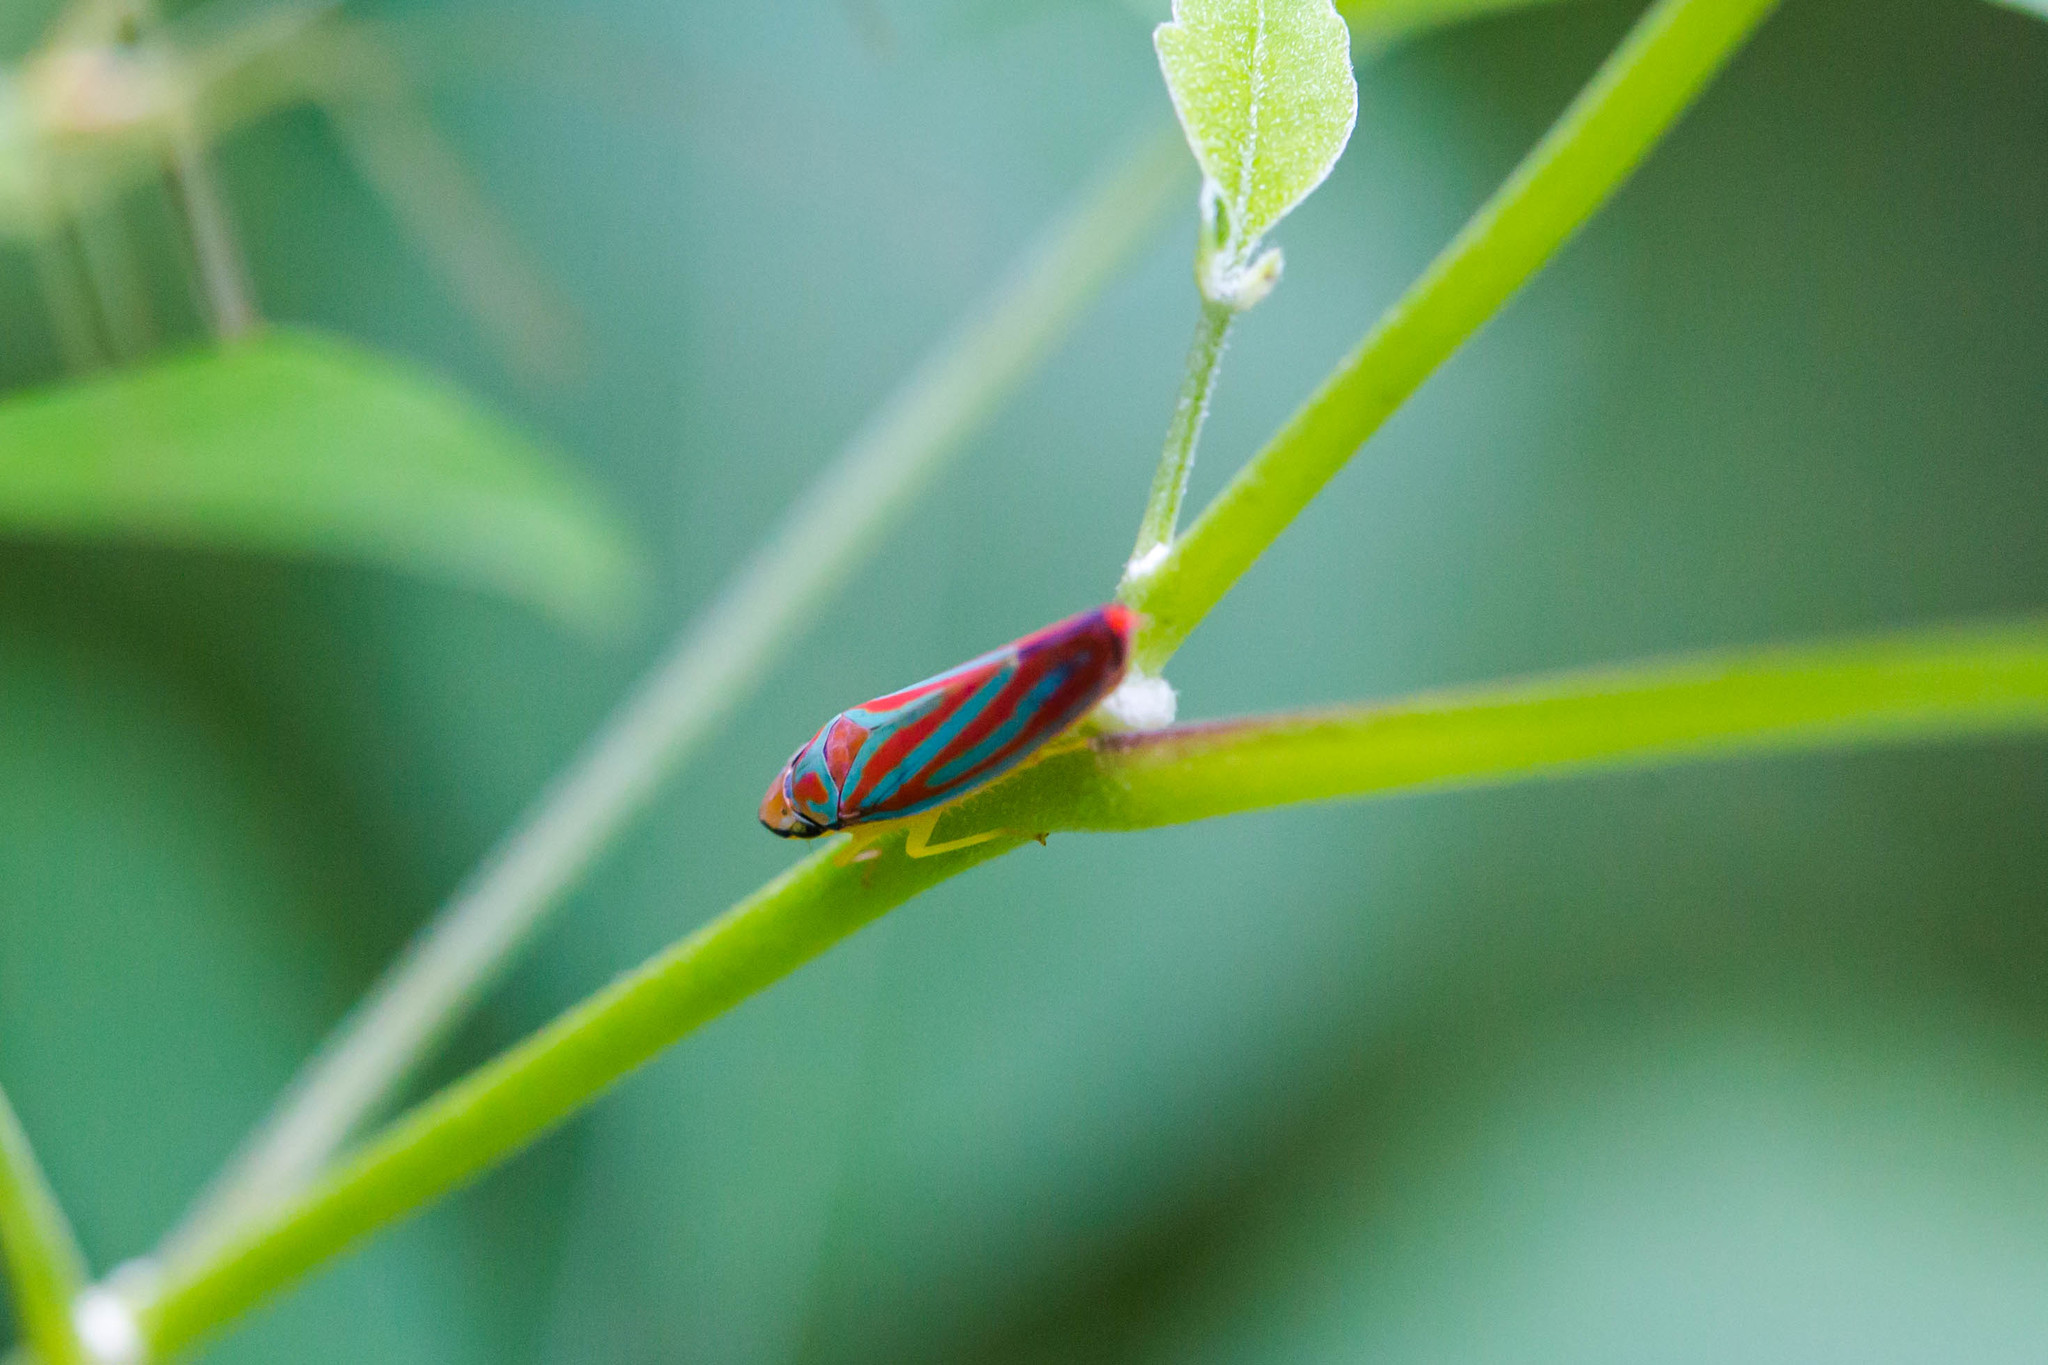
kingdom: Animalia
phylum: Arthropoda
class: Insecta
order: Hemiptera
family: Cicadellidae
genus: Graphocephala
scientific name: Graphocephala coccinea
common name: Candy-striped leafhopper
